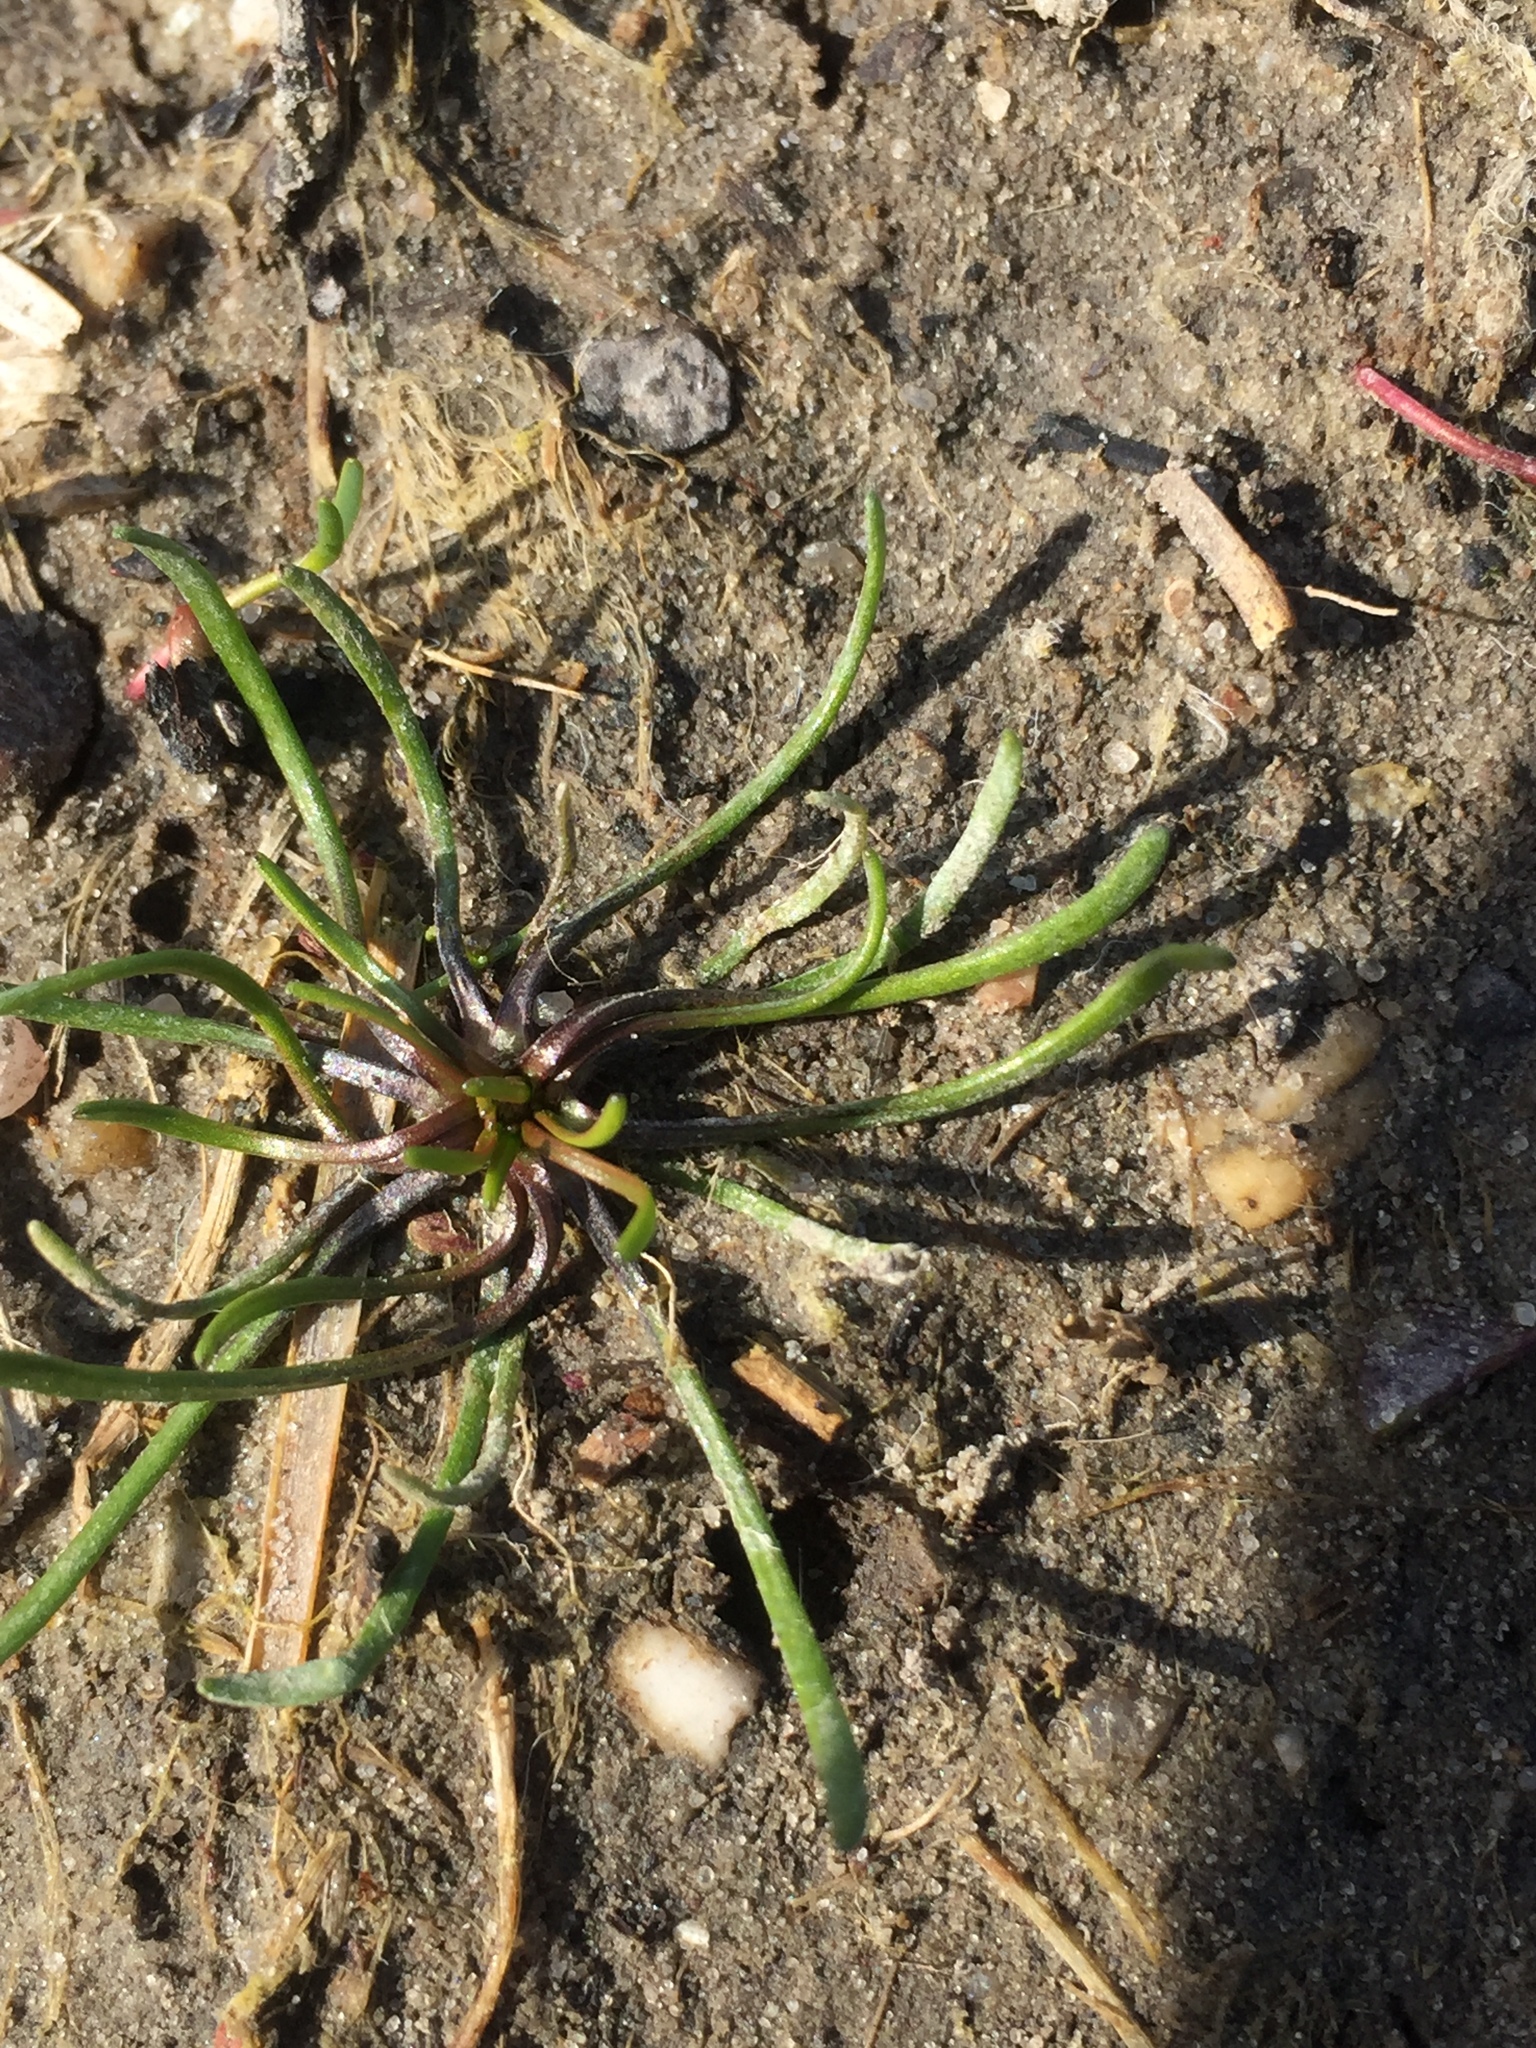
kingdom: Plantae
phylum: Tracheophyta
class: Magnoliopsida
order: Ranunculales
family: Ranunculaceae
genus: Myosurus
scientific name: Myosurus minimus
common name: Mousetail
